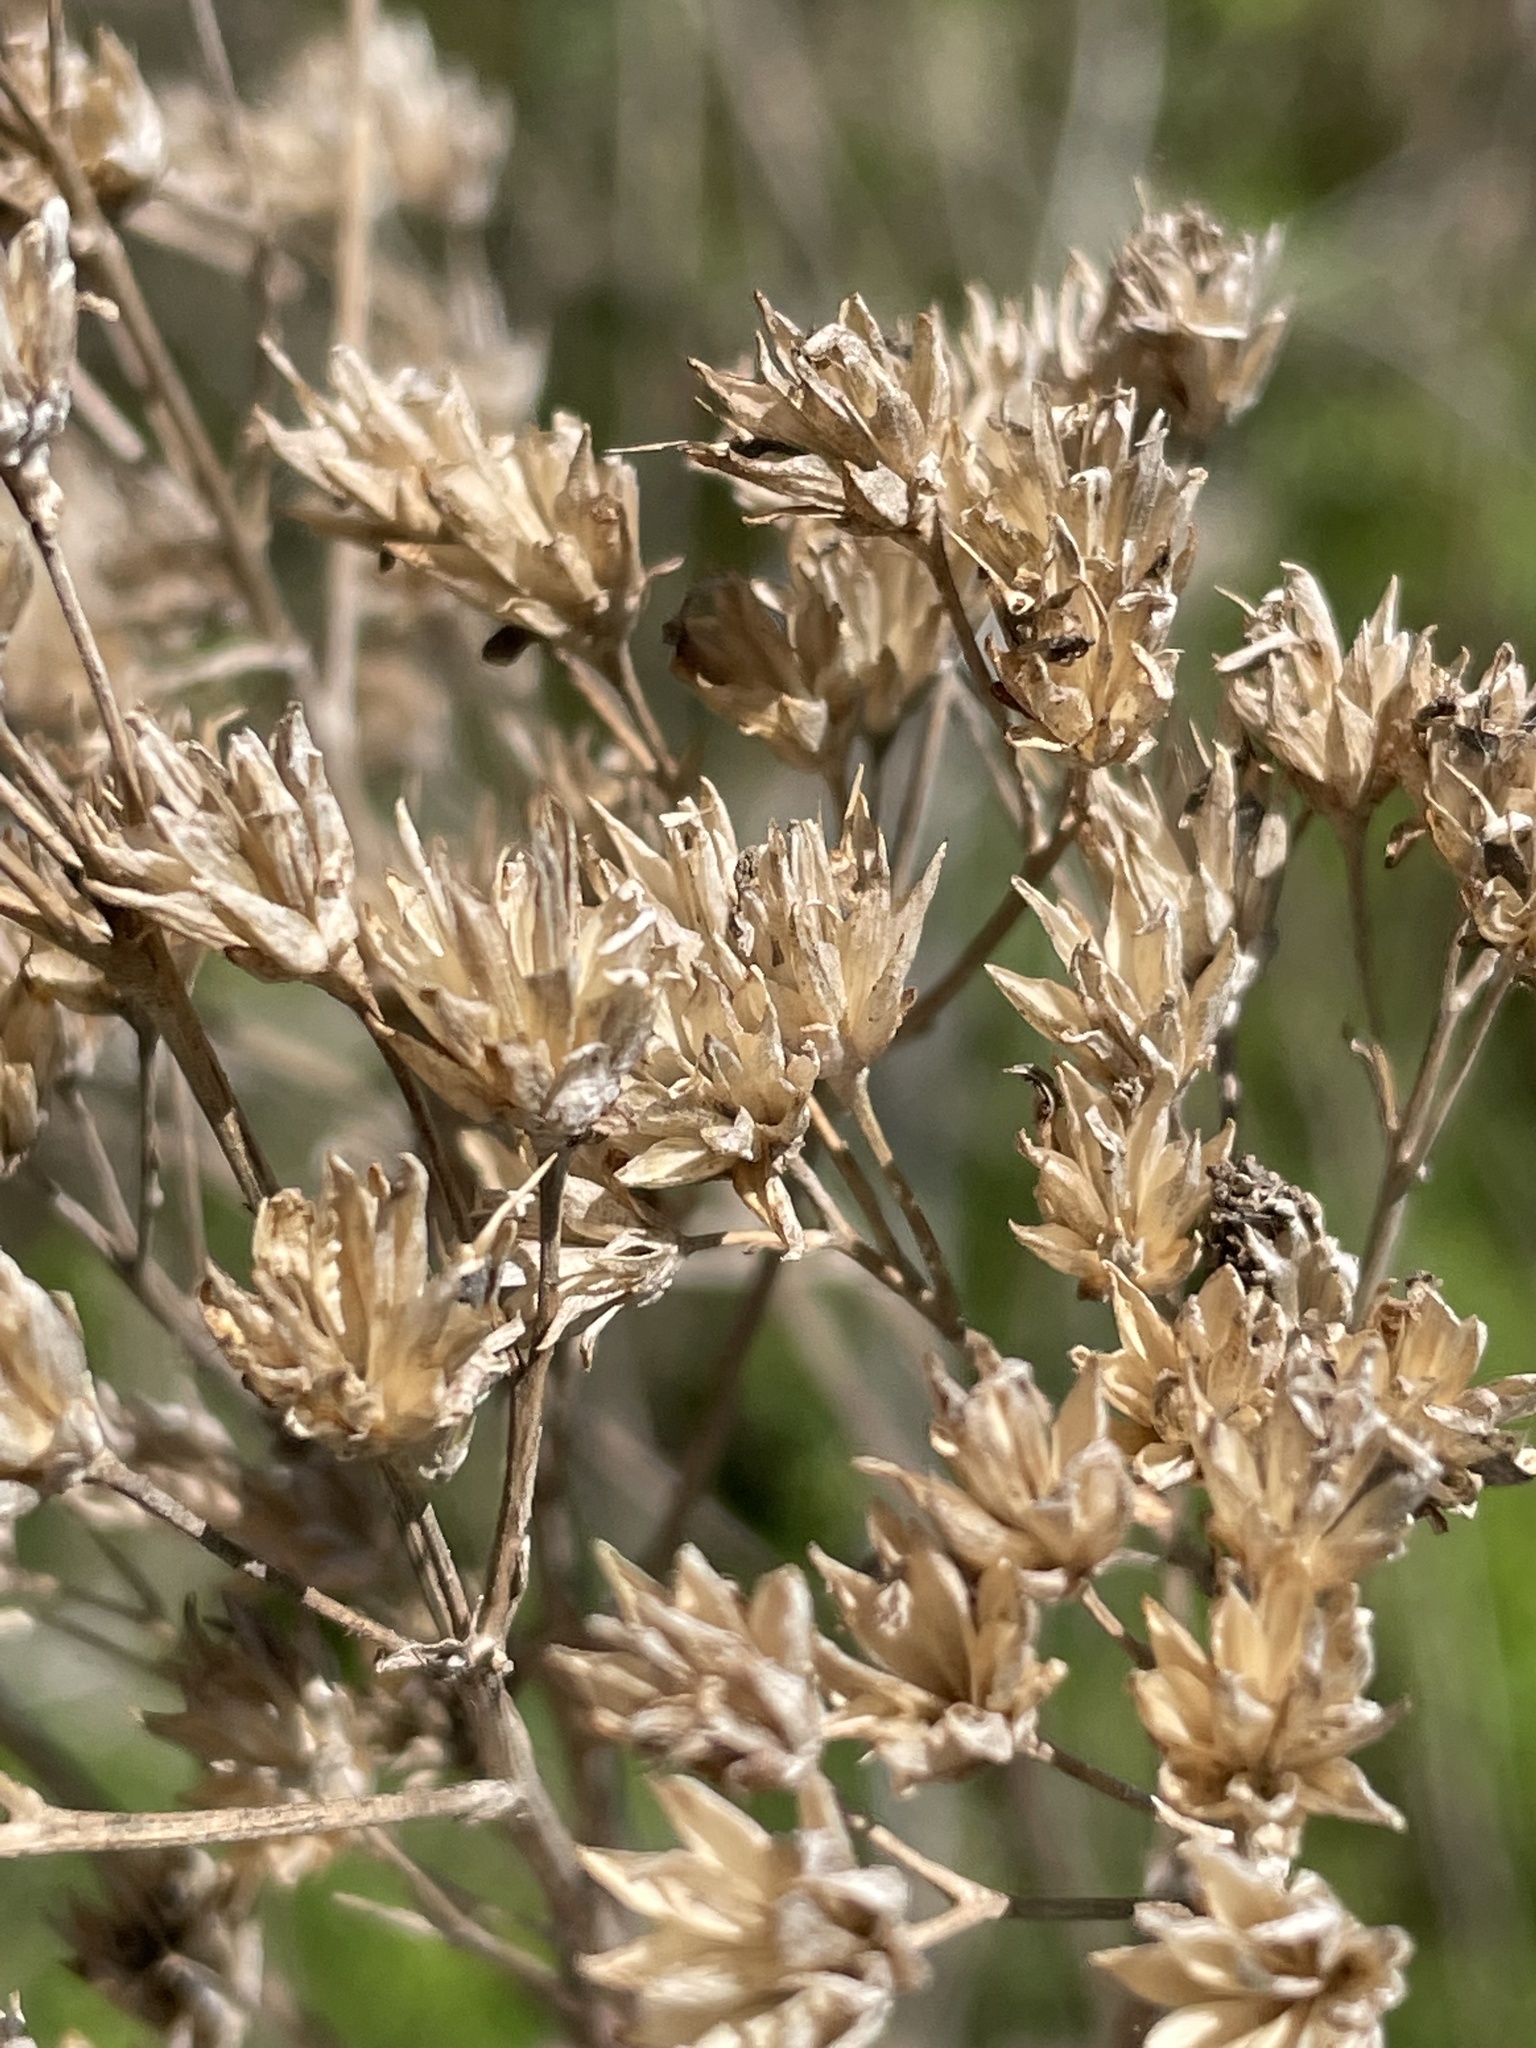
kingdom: Plantae
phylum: Tracheophyta
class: Magnoliopsida
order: Asterales
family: Asteraceae
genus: Verbesina
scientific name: Verbesina occidentalis
